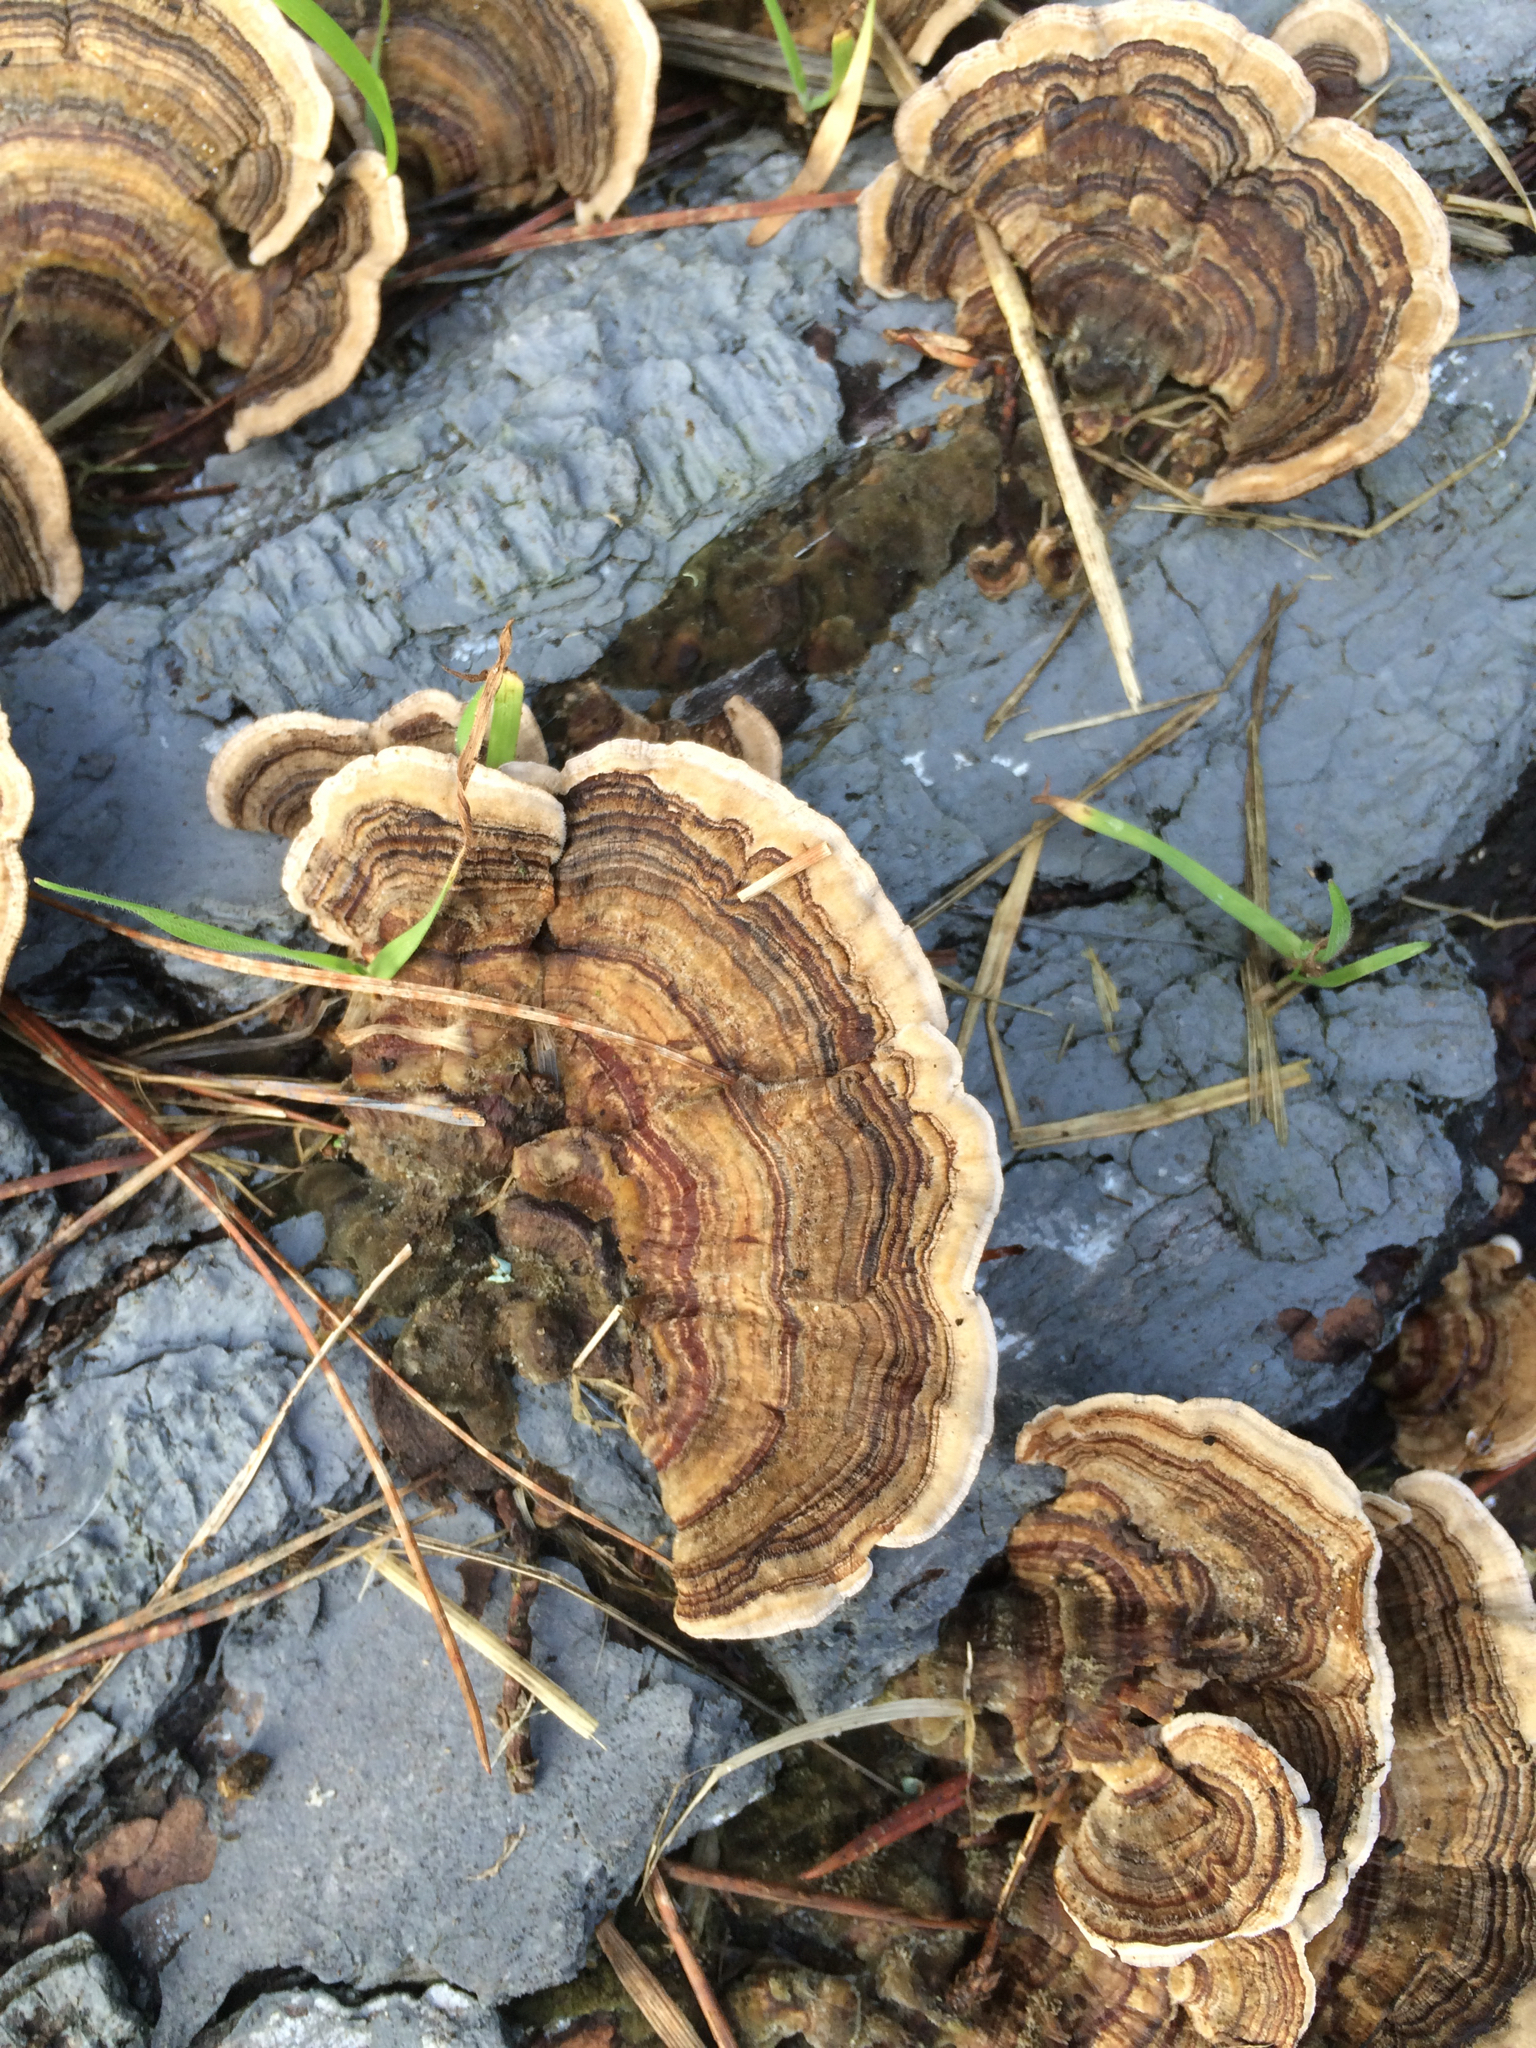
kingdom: Fungi
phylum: Basidiomycota
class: Agaricomycetes
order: Polyporales
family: Polyporaceae
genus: Trametes
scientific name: Trametes versicolor
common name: Turkeytail
